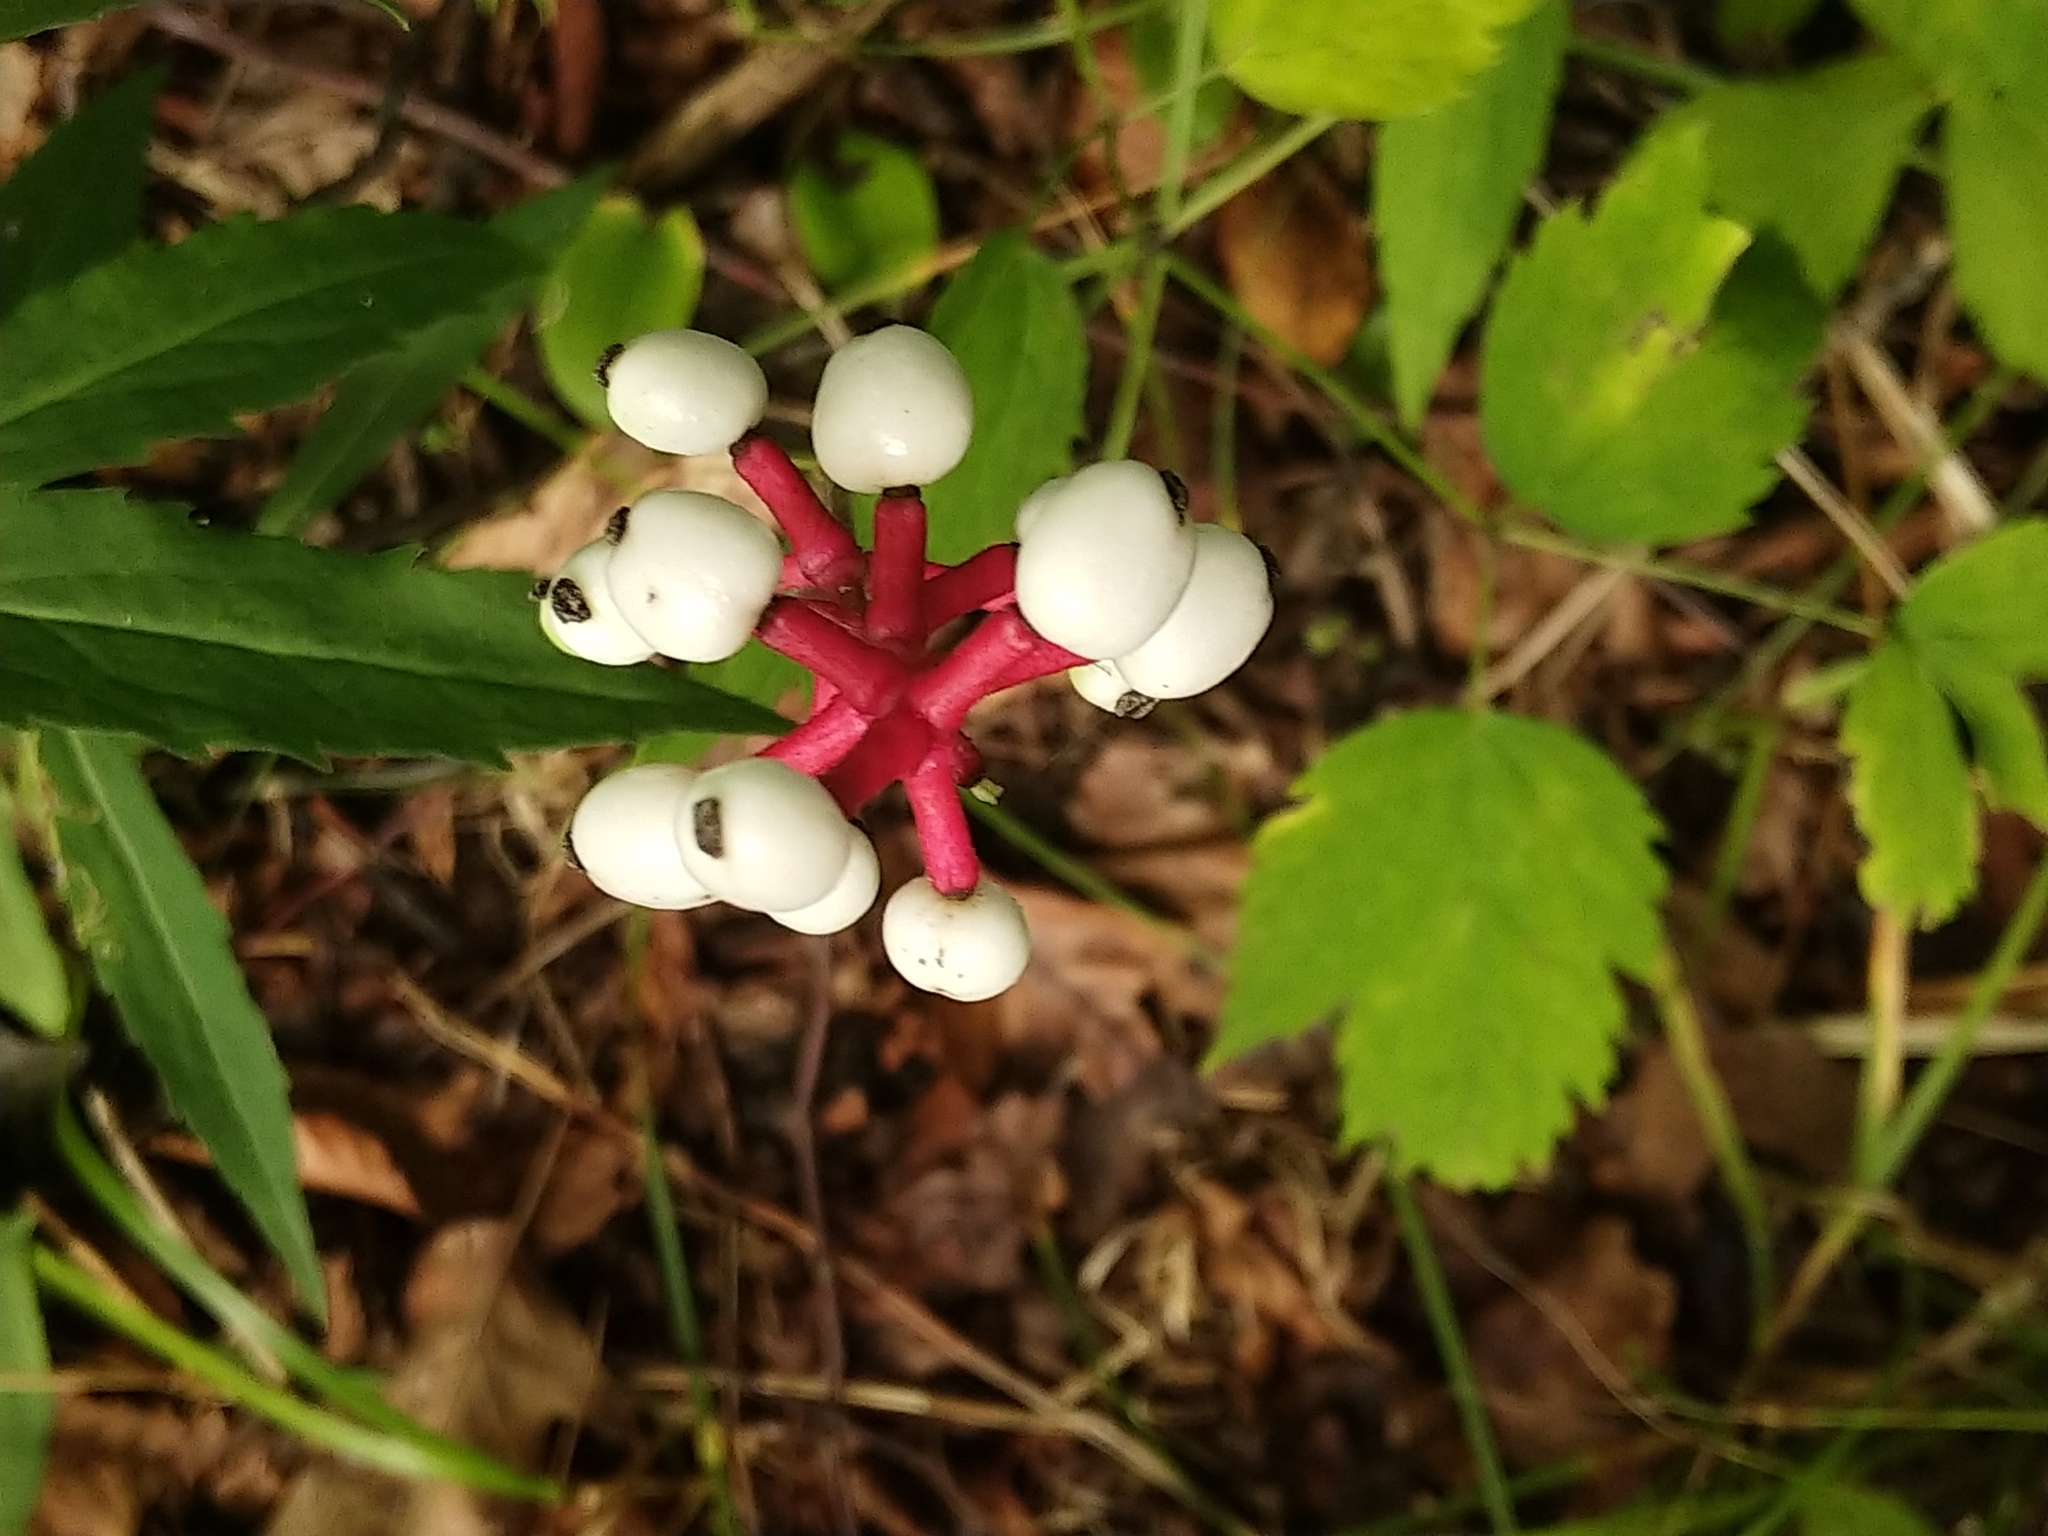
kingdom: Plantae
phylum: Tracheophyta
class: Magnoliopsida
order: Ranunculales
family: Ranunculaceae
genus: Actaea
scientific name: Actaea pachypoda
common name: Doll's-eyes
